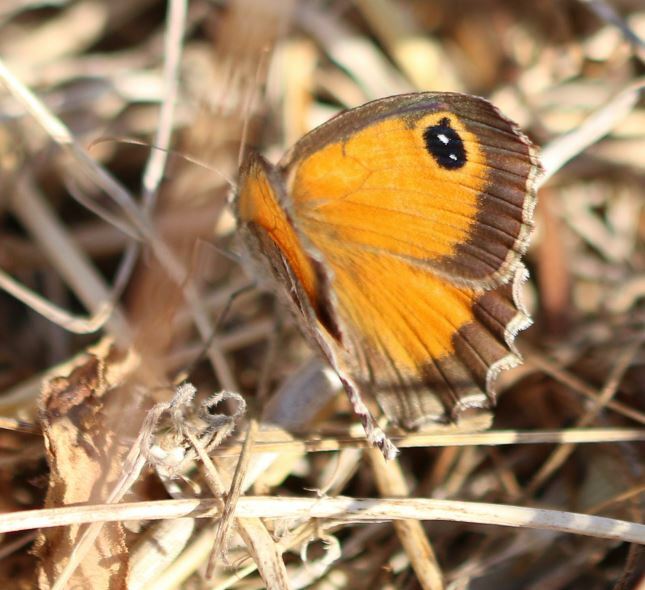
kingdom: Animalia
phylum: Arthropoda
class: Insecta
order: Lepidoptera
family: Nymphalidae
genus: Pyronia
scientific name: Pyronia cecilia
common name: Southern gatekeeper
